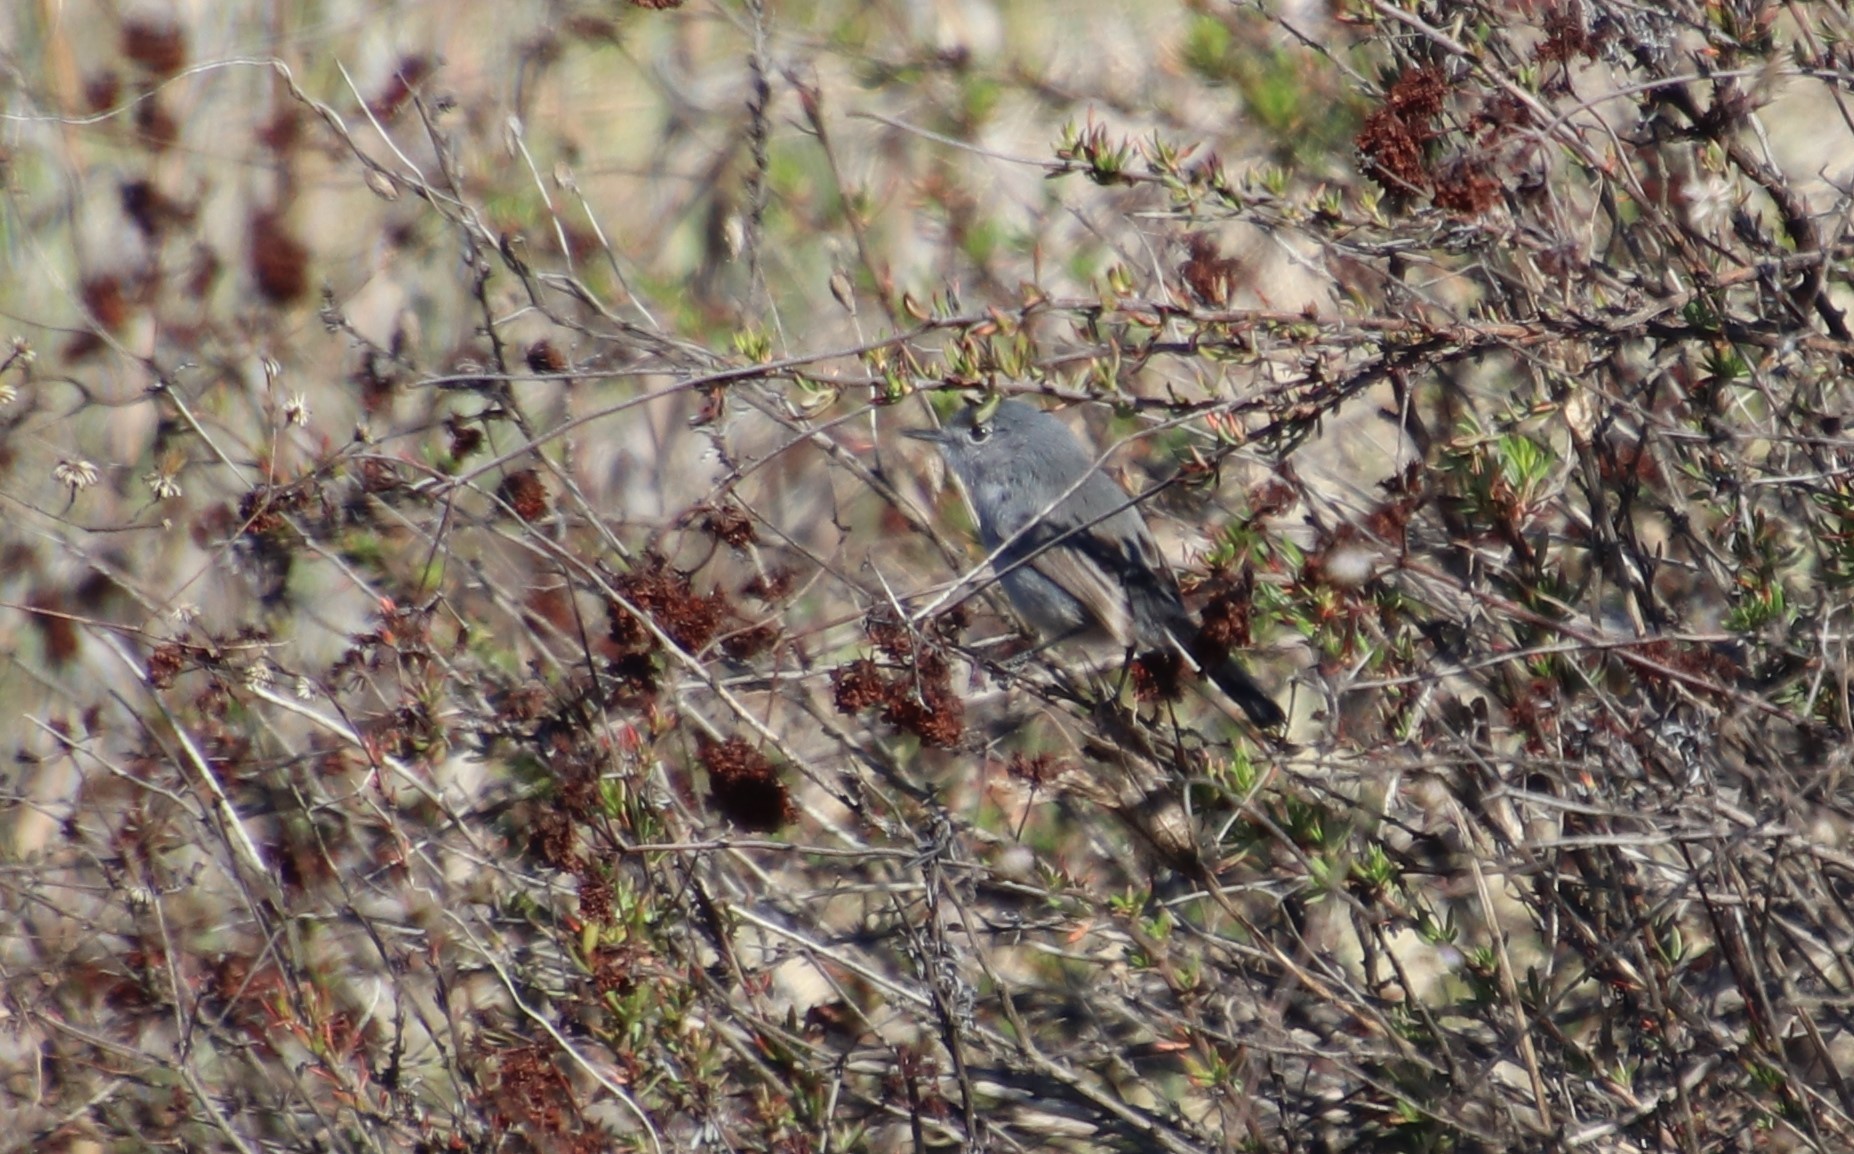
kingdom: Animalia
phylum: Chordata
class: Aves
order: Passeriformes
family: Polioptilidae
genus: Polioptila
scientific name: Polioptila californica
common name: California gnatcatcher
